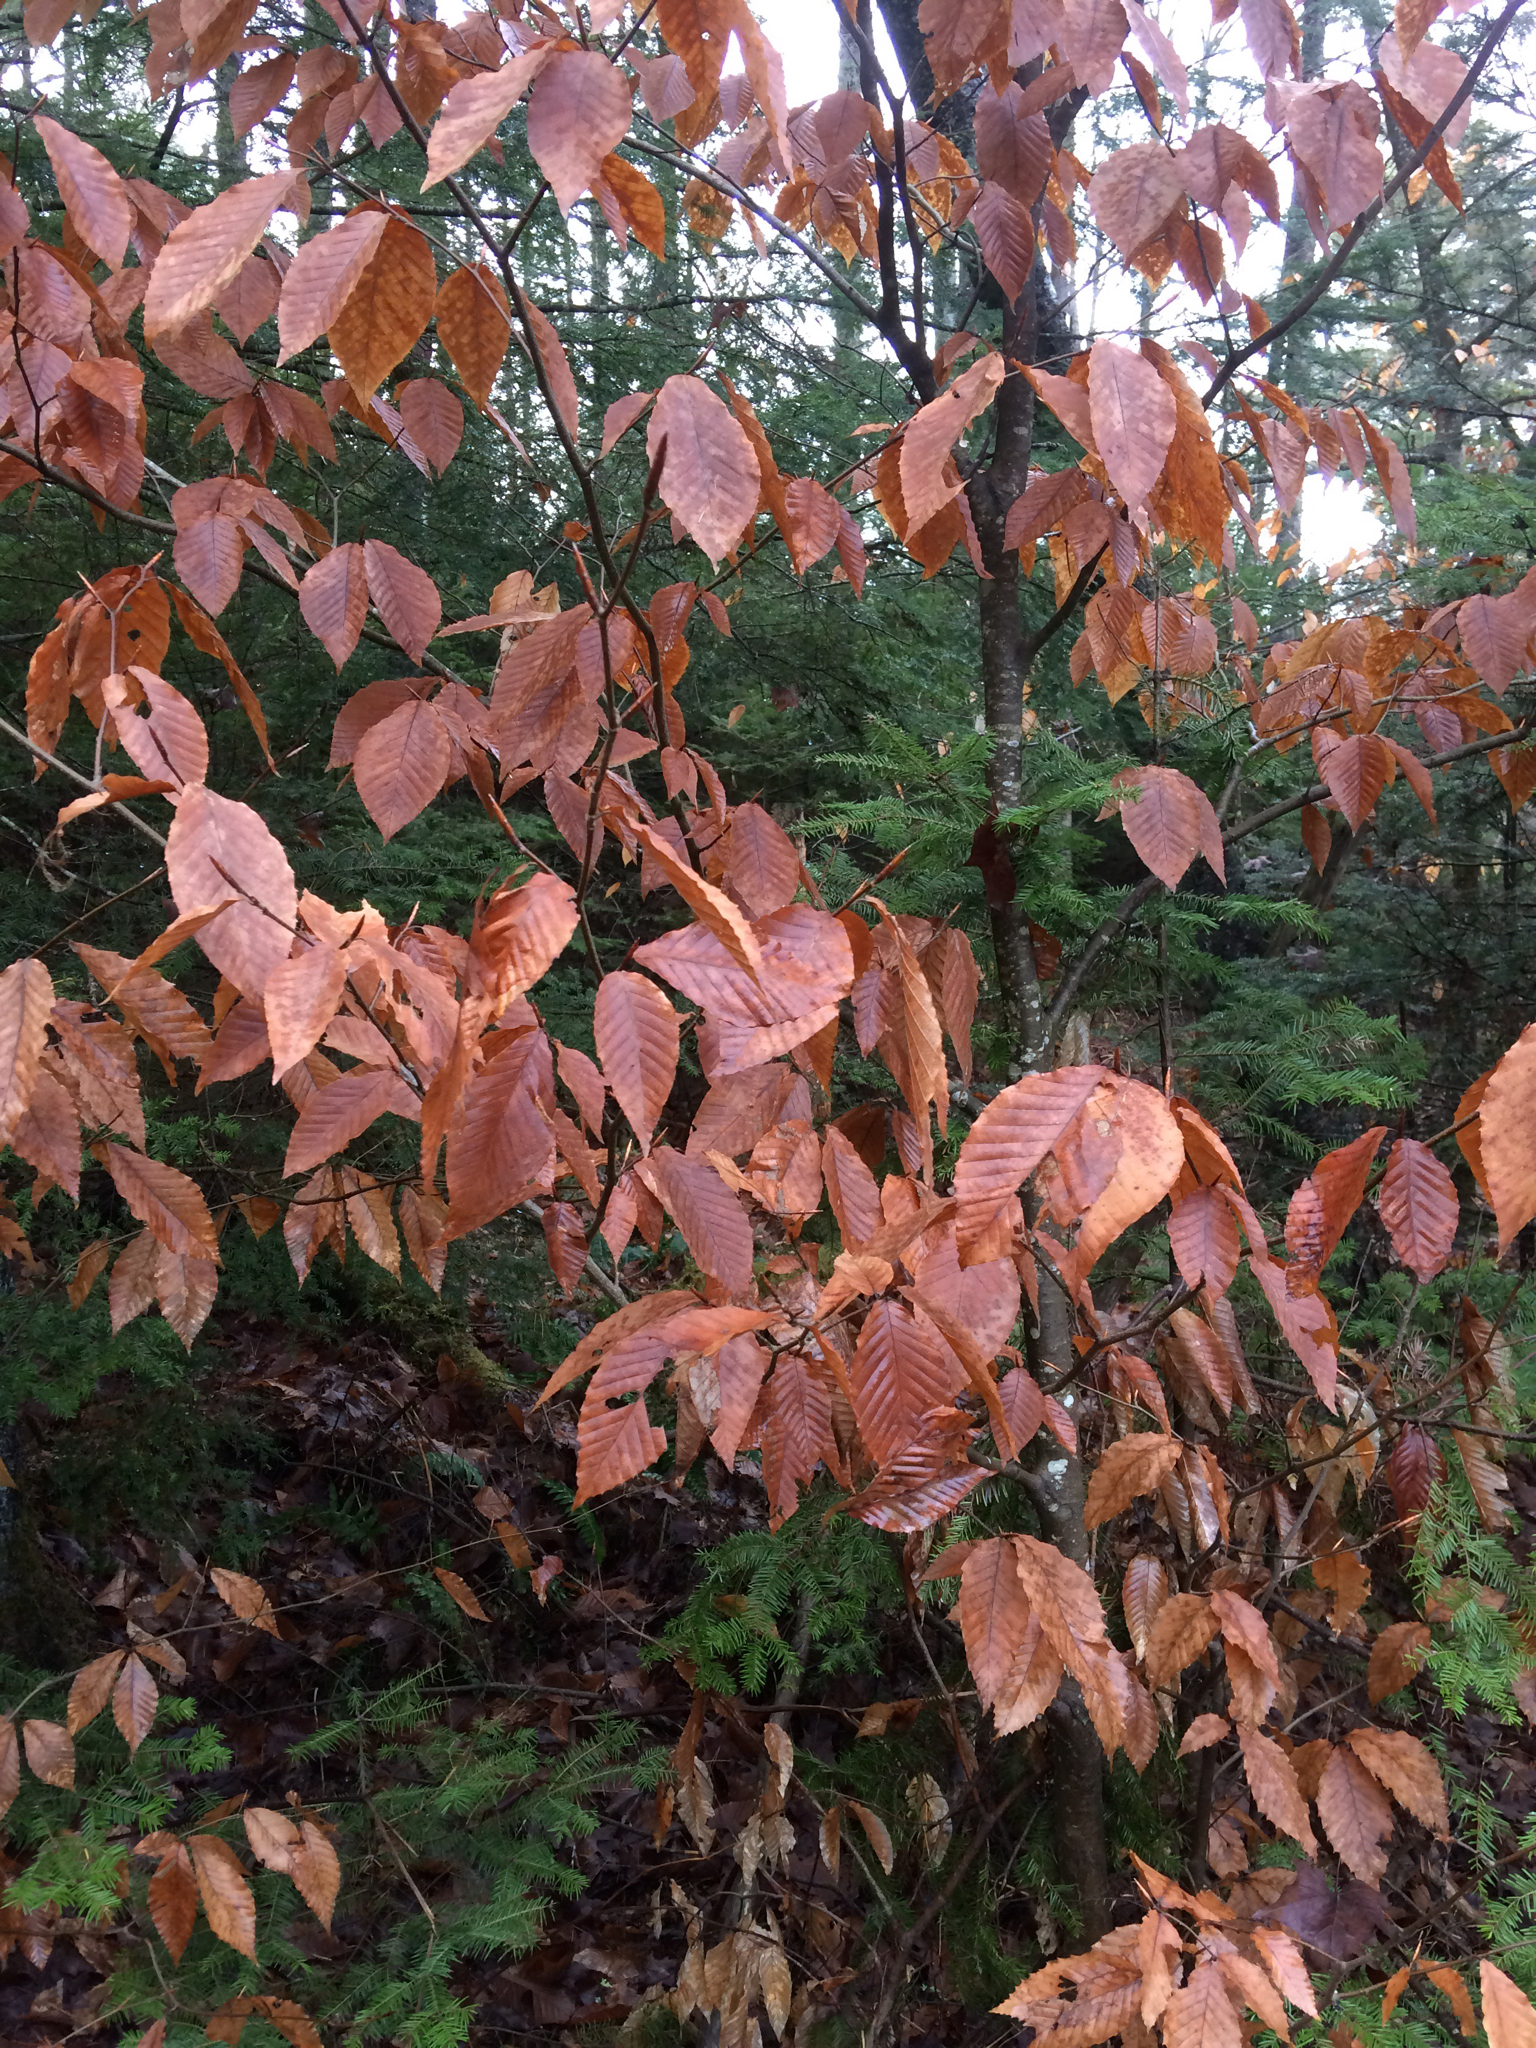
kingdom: Plantae
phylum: Tracheophyta
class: Magnoliopsida
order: Fagales
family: Fagaceae
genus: Fagus
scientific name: Fagus grandifolia
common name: American beech
